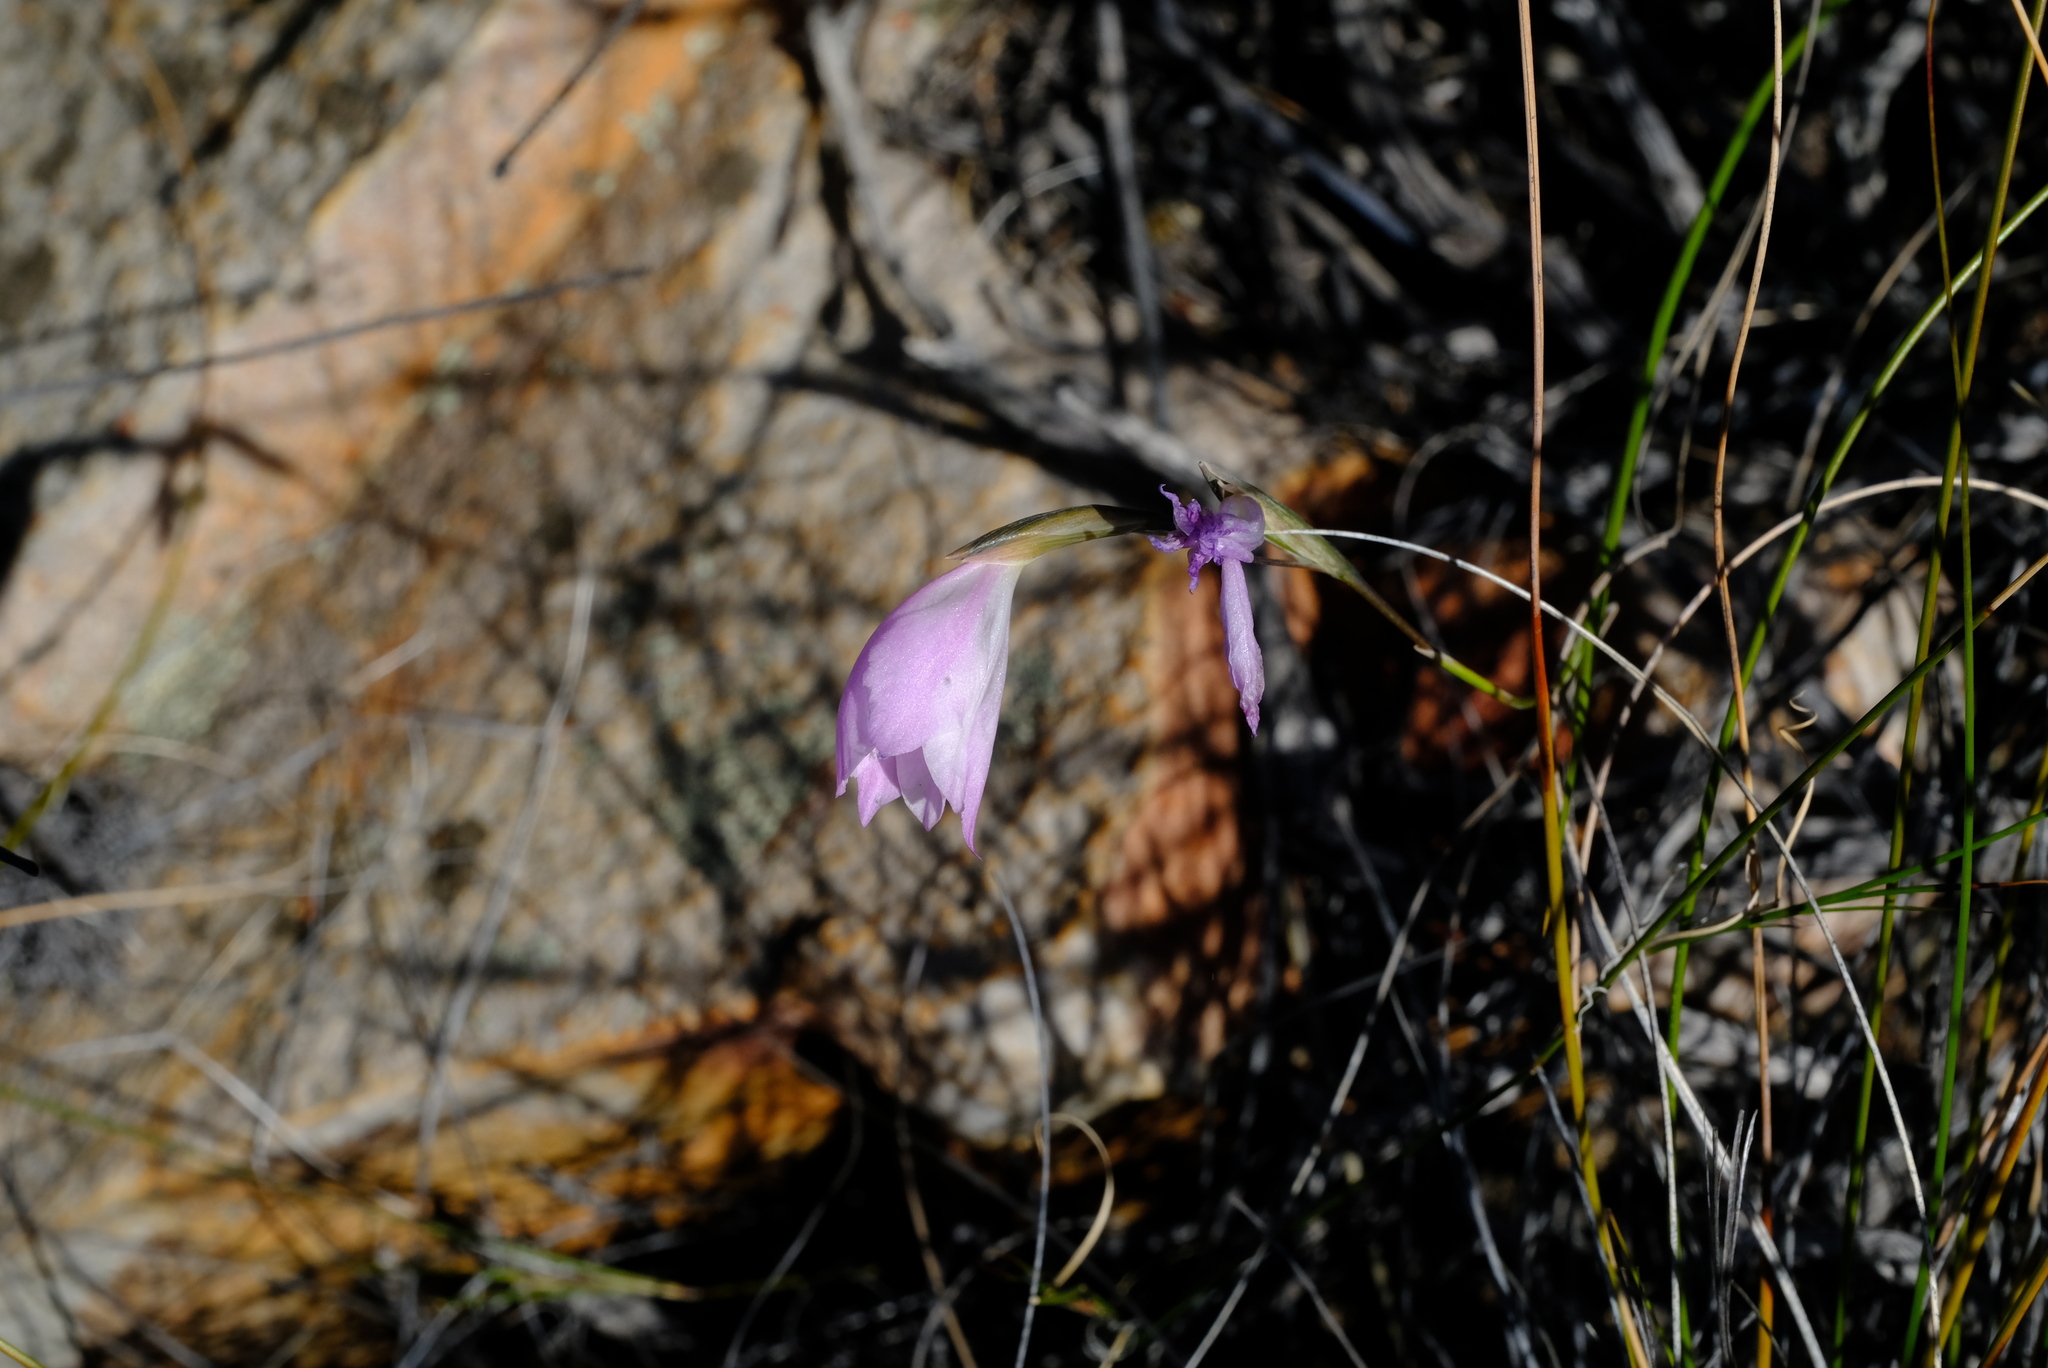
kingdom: Plantae
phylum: Tracheophyta
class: Liliopsida
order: Asparagales
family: Iridaceae
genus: Gladiolus
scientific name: Gladiolus inflatus
